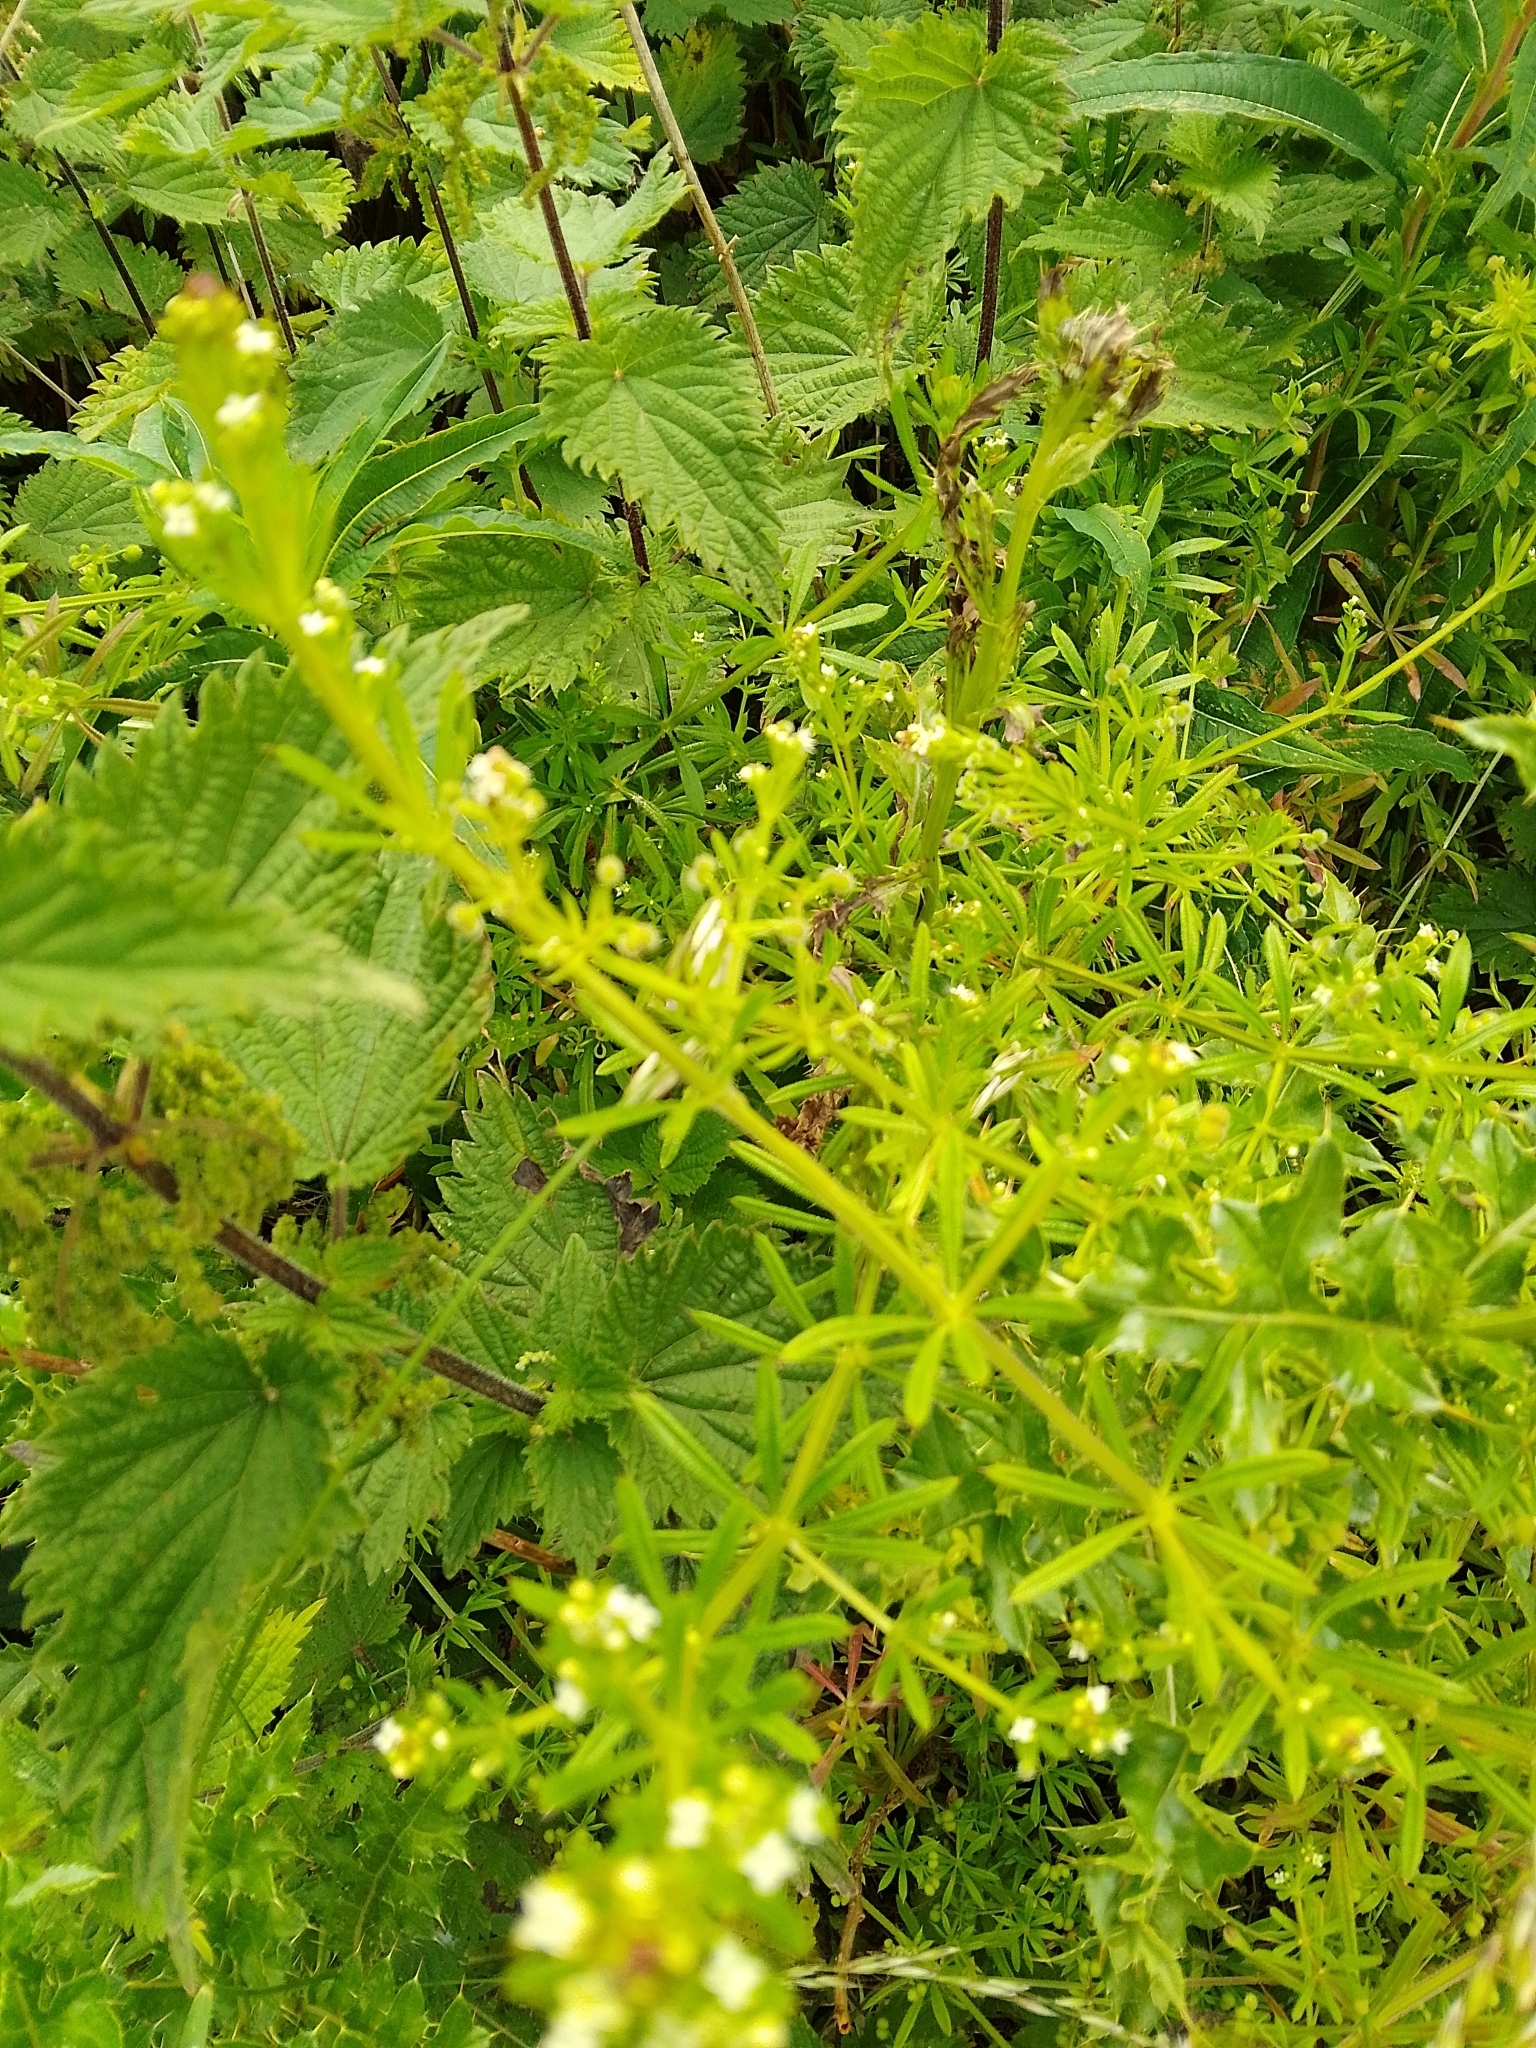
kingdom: Plantae
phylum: Tracheophyta
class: Magnoliopsida
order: Gentianales
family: Rubiaceae
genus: Galium
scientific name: Galium aparine
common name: Cleavers
